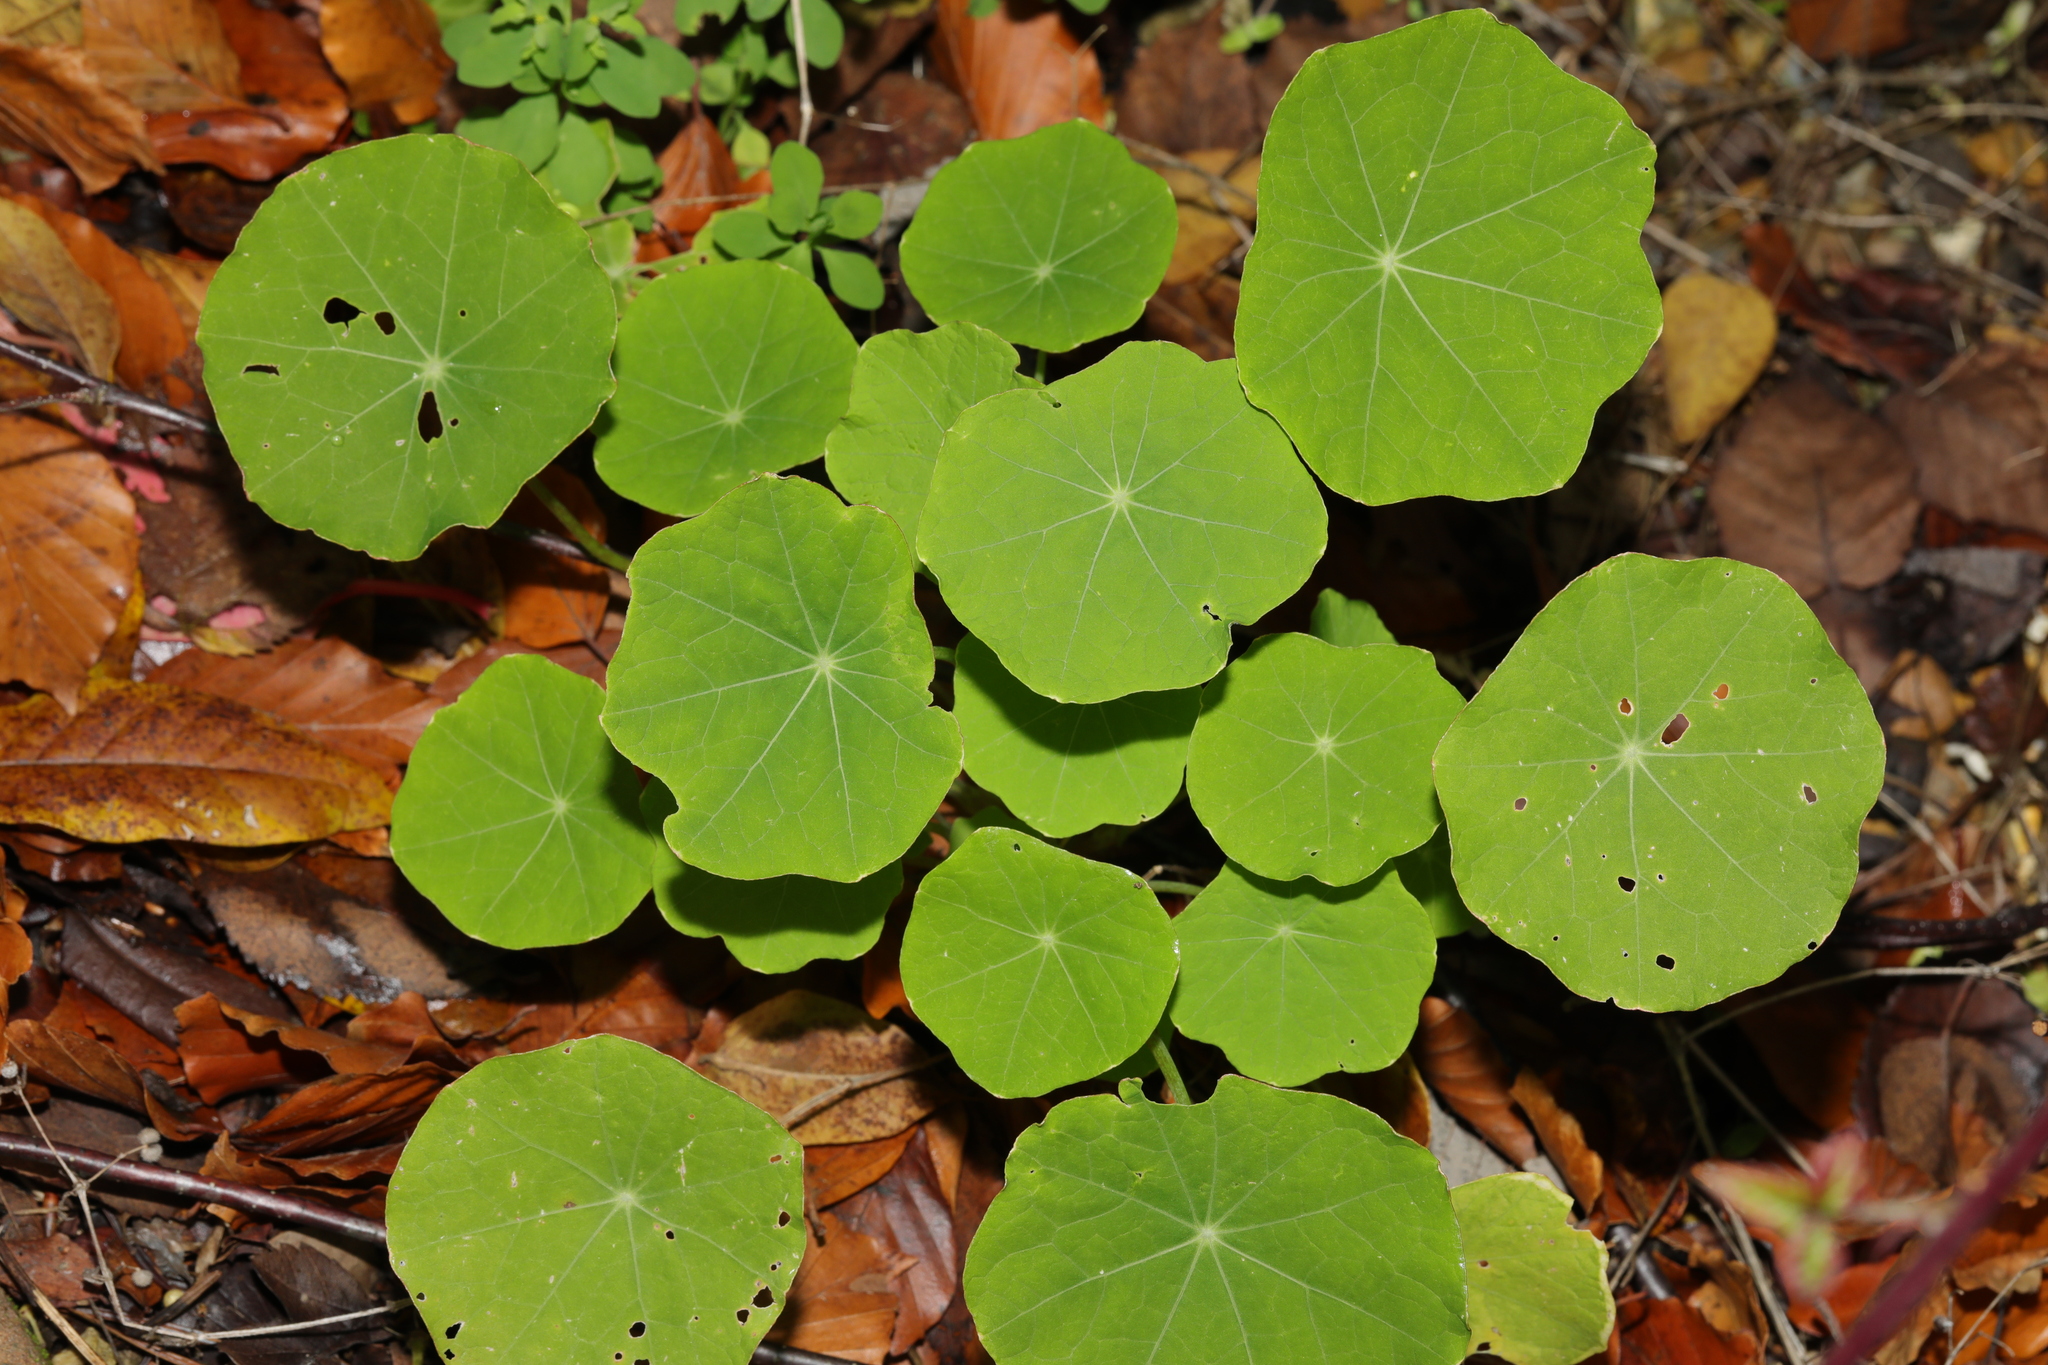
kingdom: Plantae
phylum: Tracheophyta
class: Magnoliopsida
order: Brassicales
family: Tropaeolaceae
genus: Tropaeolum
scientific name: Tropaeolum majus
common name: Nasturtium
